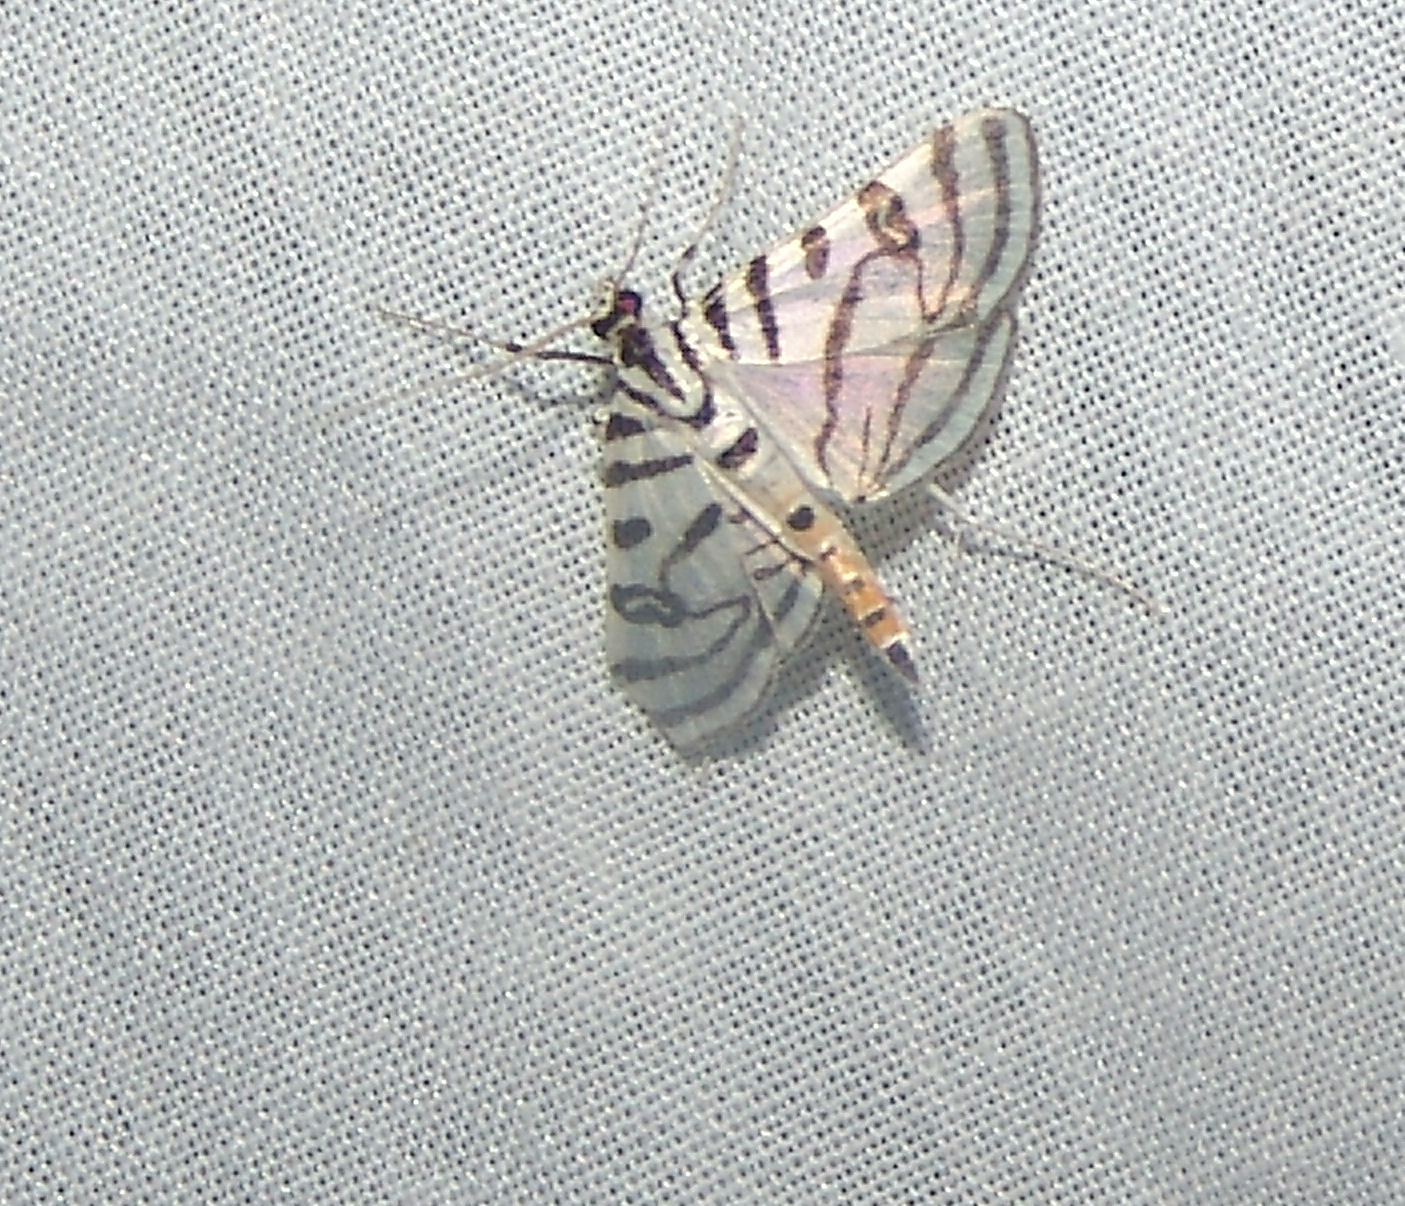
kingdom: Animalia
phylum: Arthropoda
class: Insecta
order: Lepidoptera
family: Crambidae
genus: Conchylodes
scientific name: Conchylodes ovulalis
